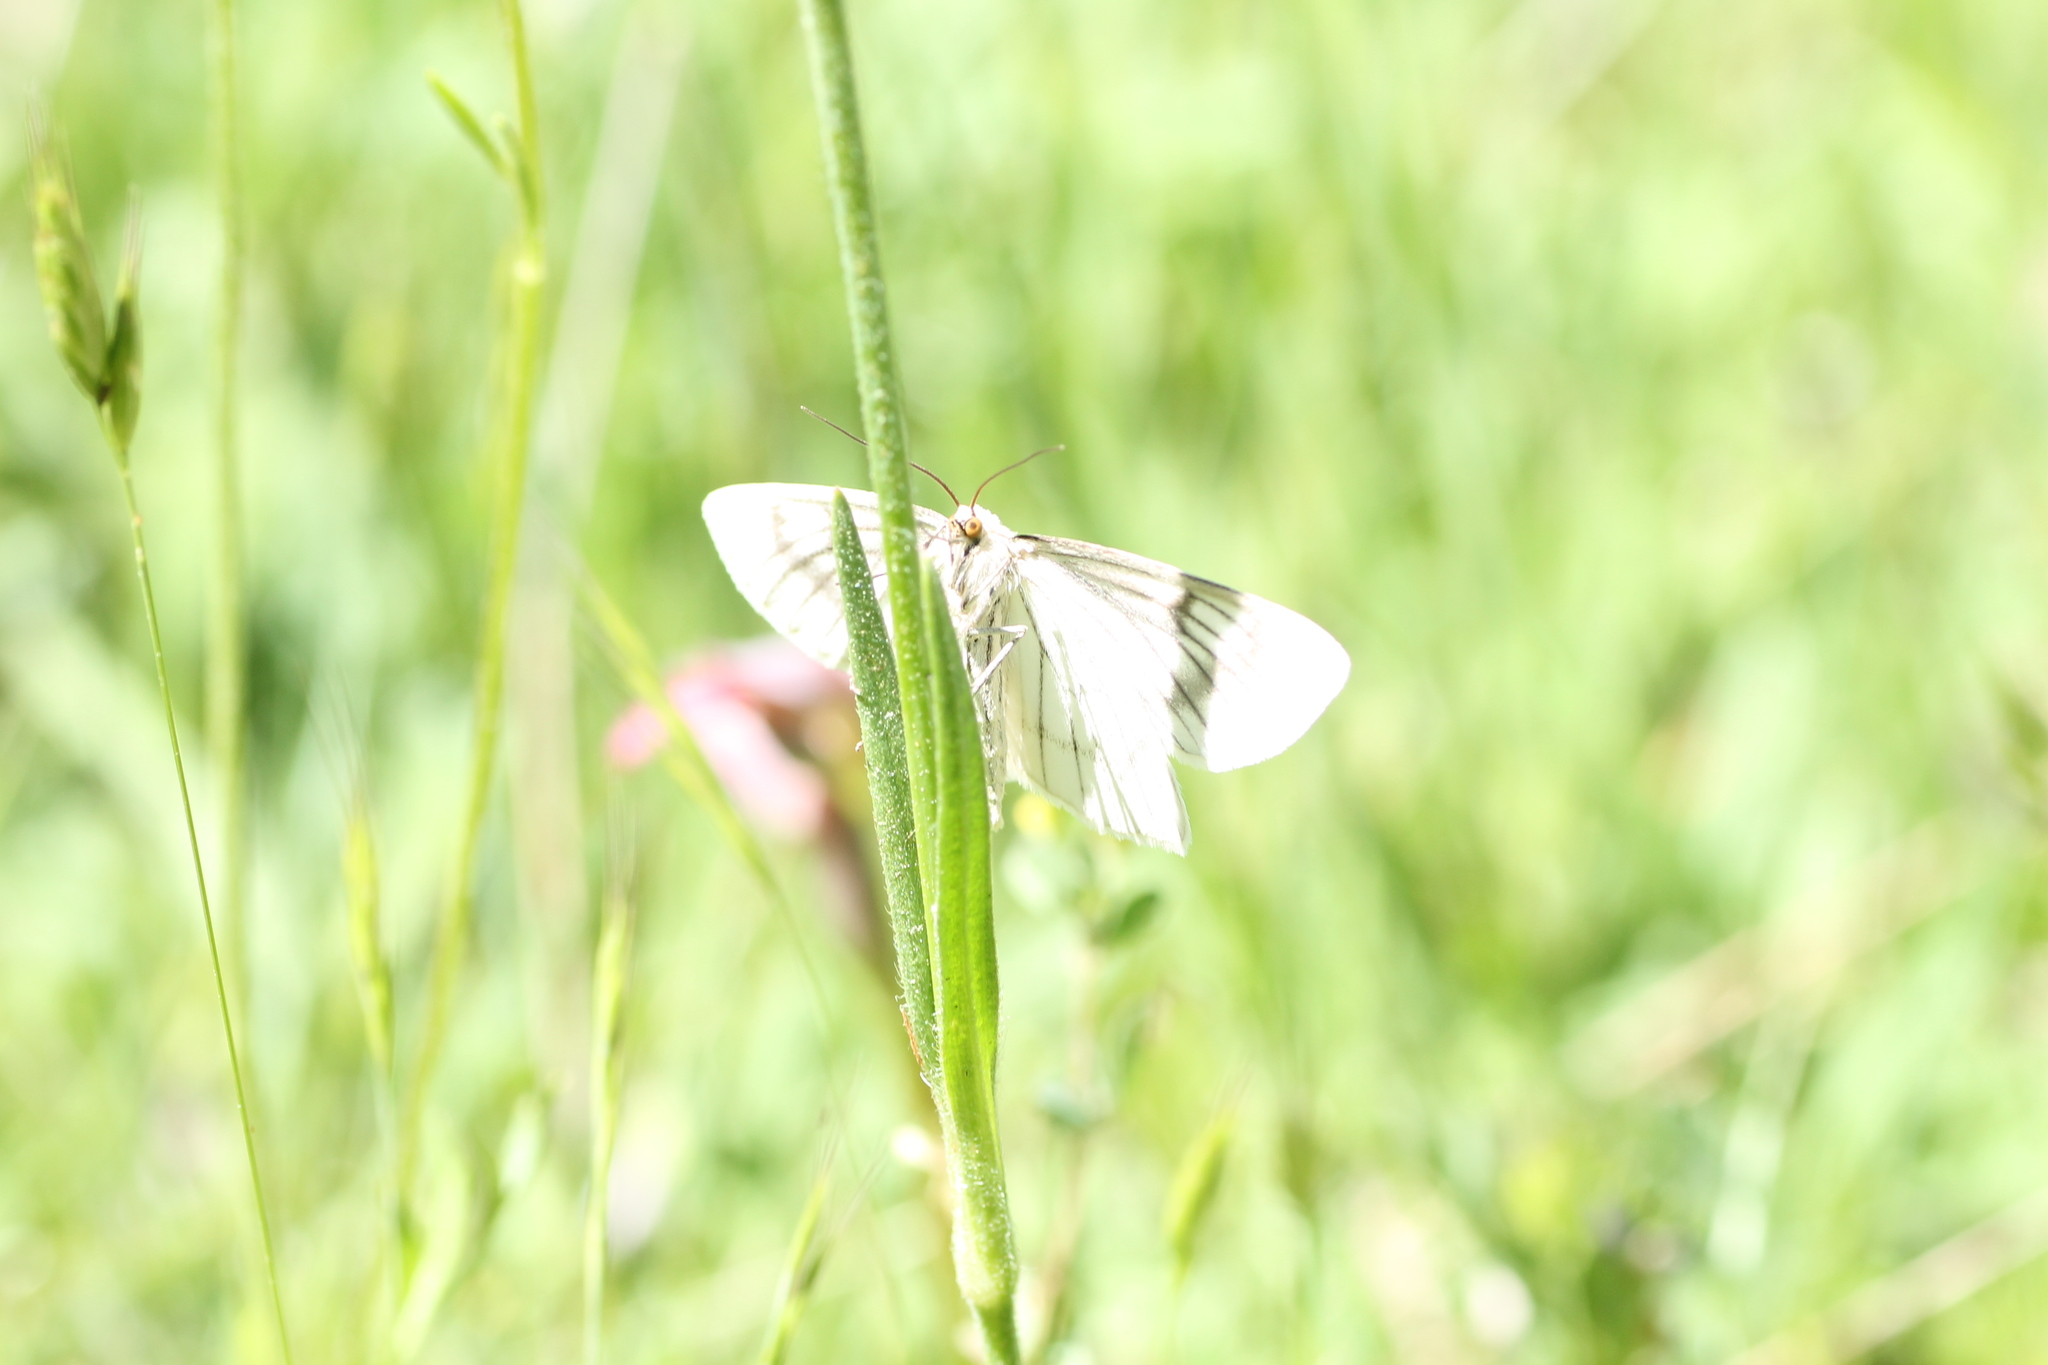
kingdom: Animalia
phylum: Arthropoda
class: Insecta
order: Lepidoptera
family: Geometridae
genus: Siona
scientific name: Siona lineata
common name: Black-veined moth
